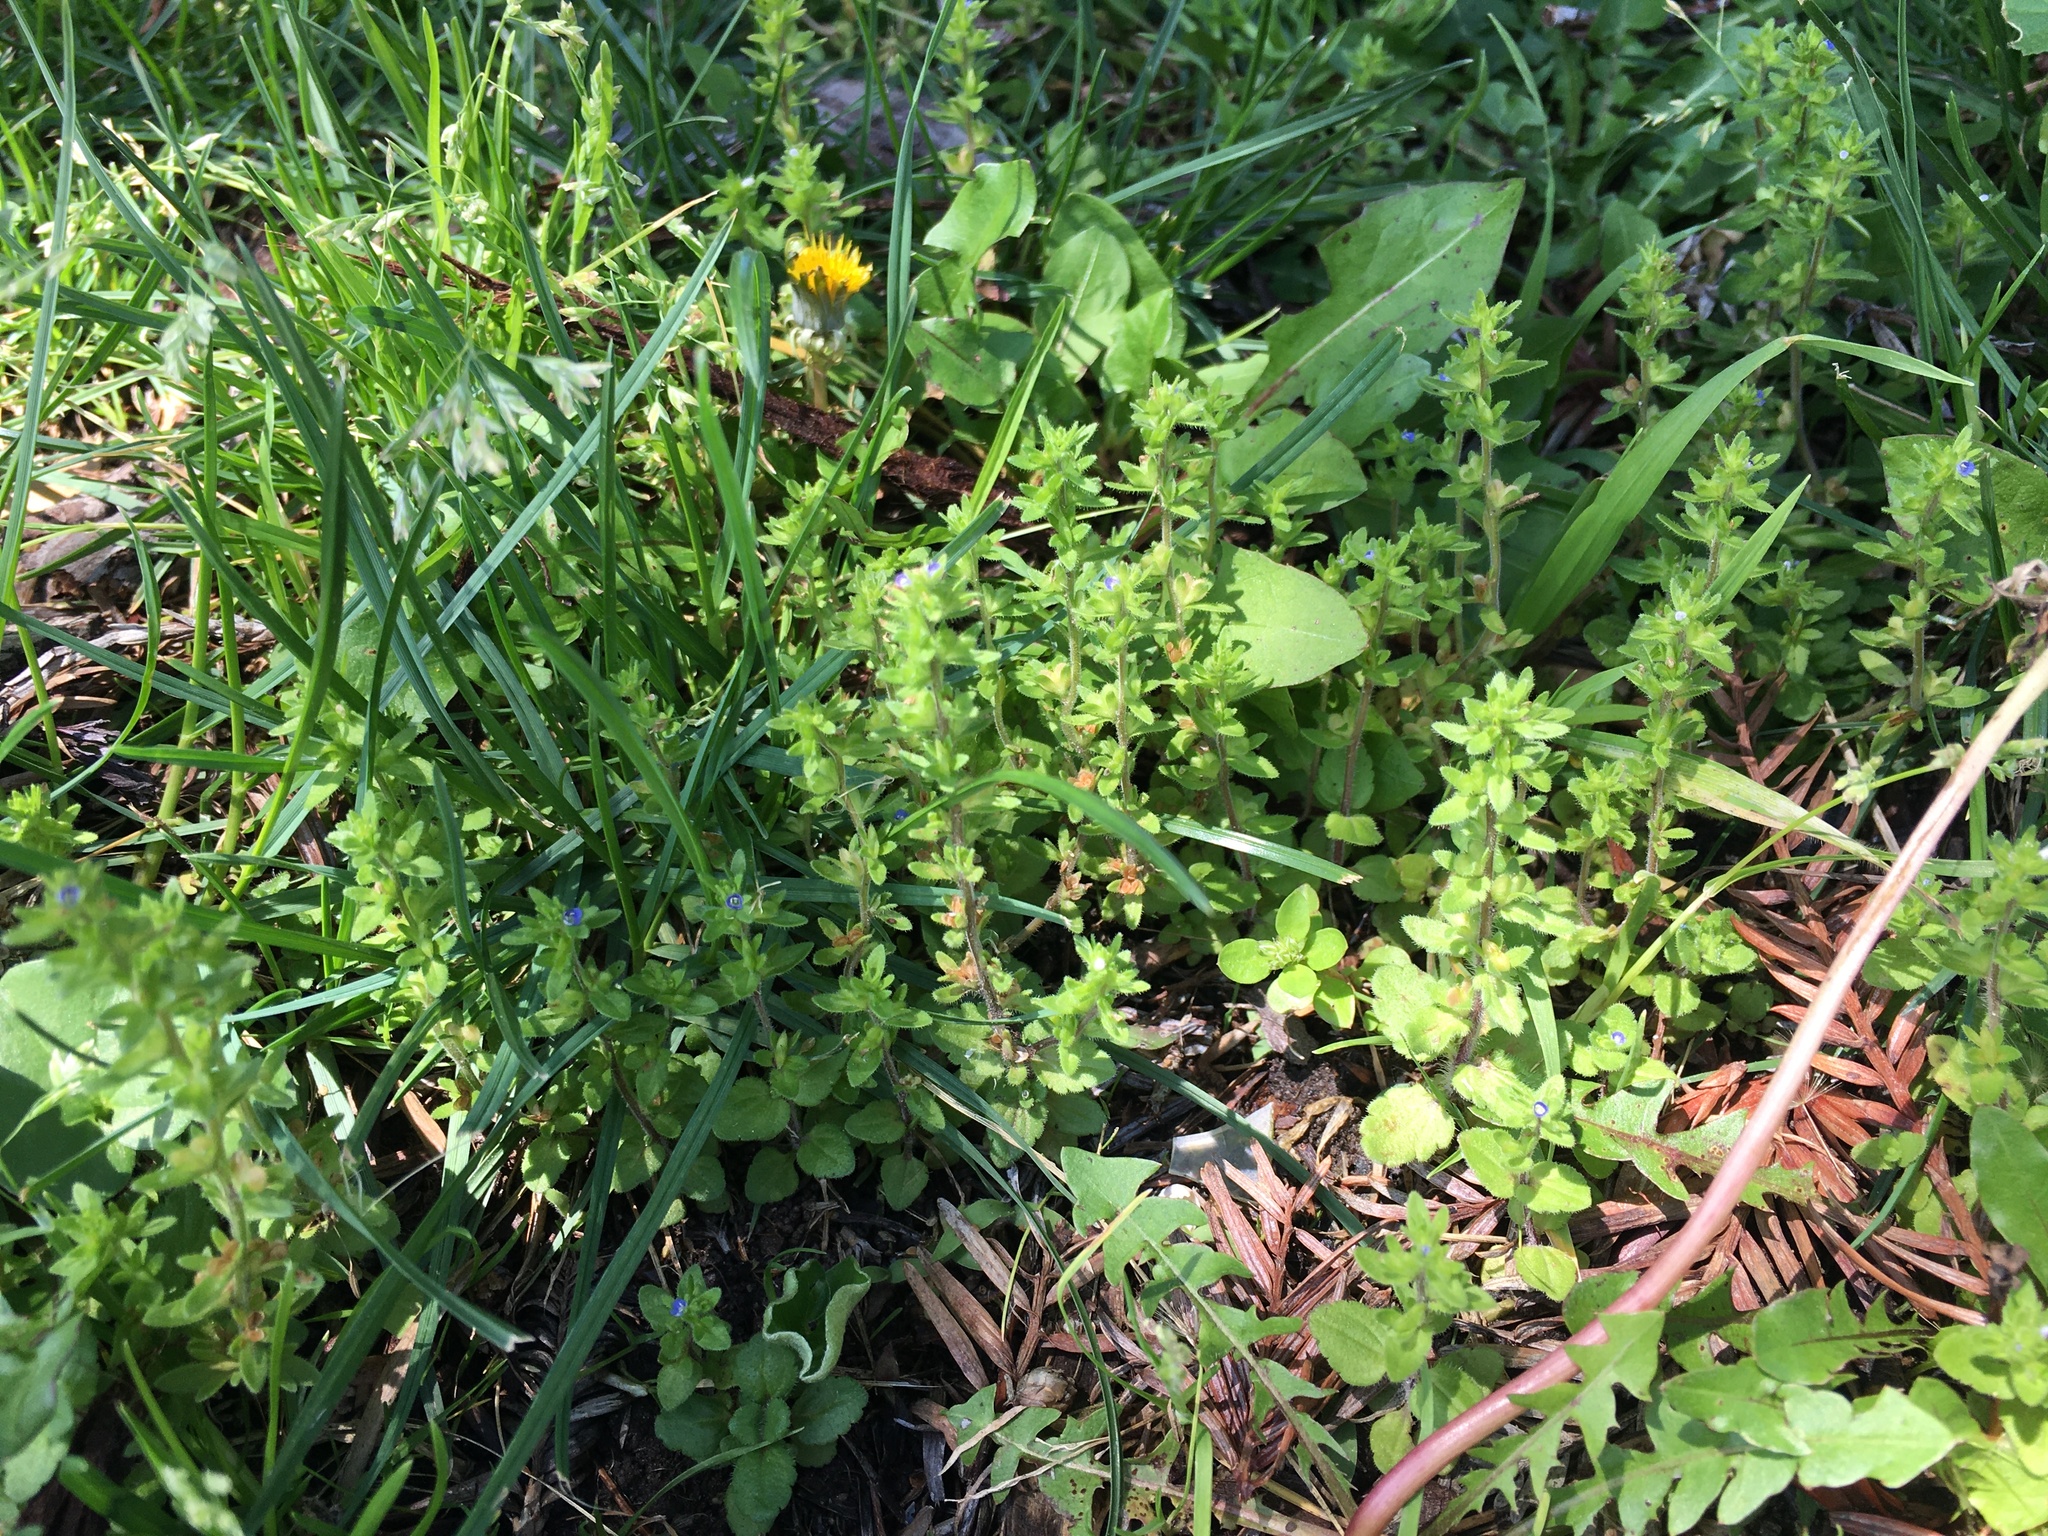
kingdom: Plantae
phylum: Tracheophyta
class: Magnoliopsida
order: Lamiales
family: Plantaginaceae
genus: Veronica
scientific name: Veronica arvensis
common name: Corn speedwell
